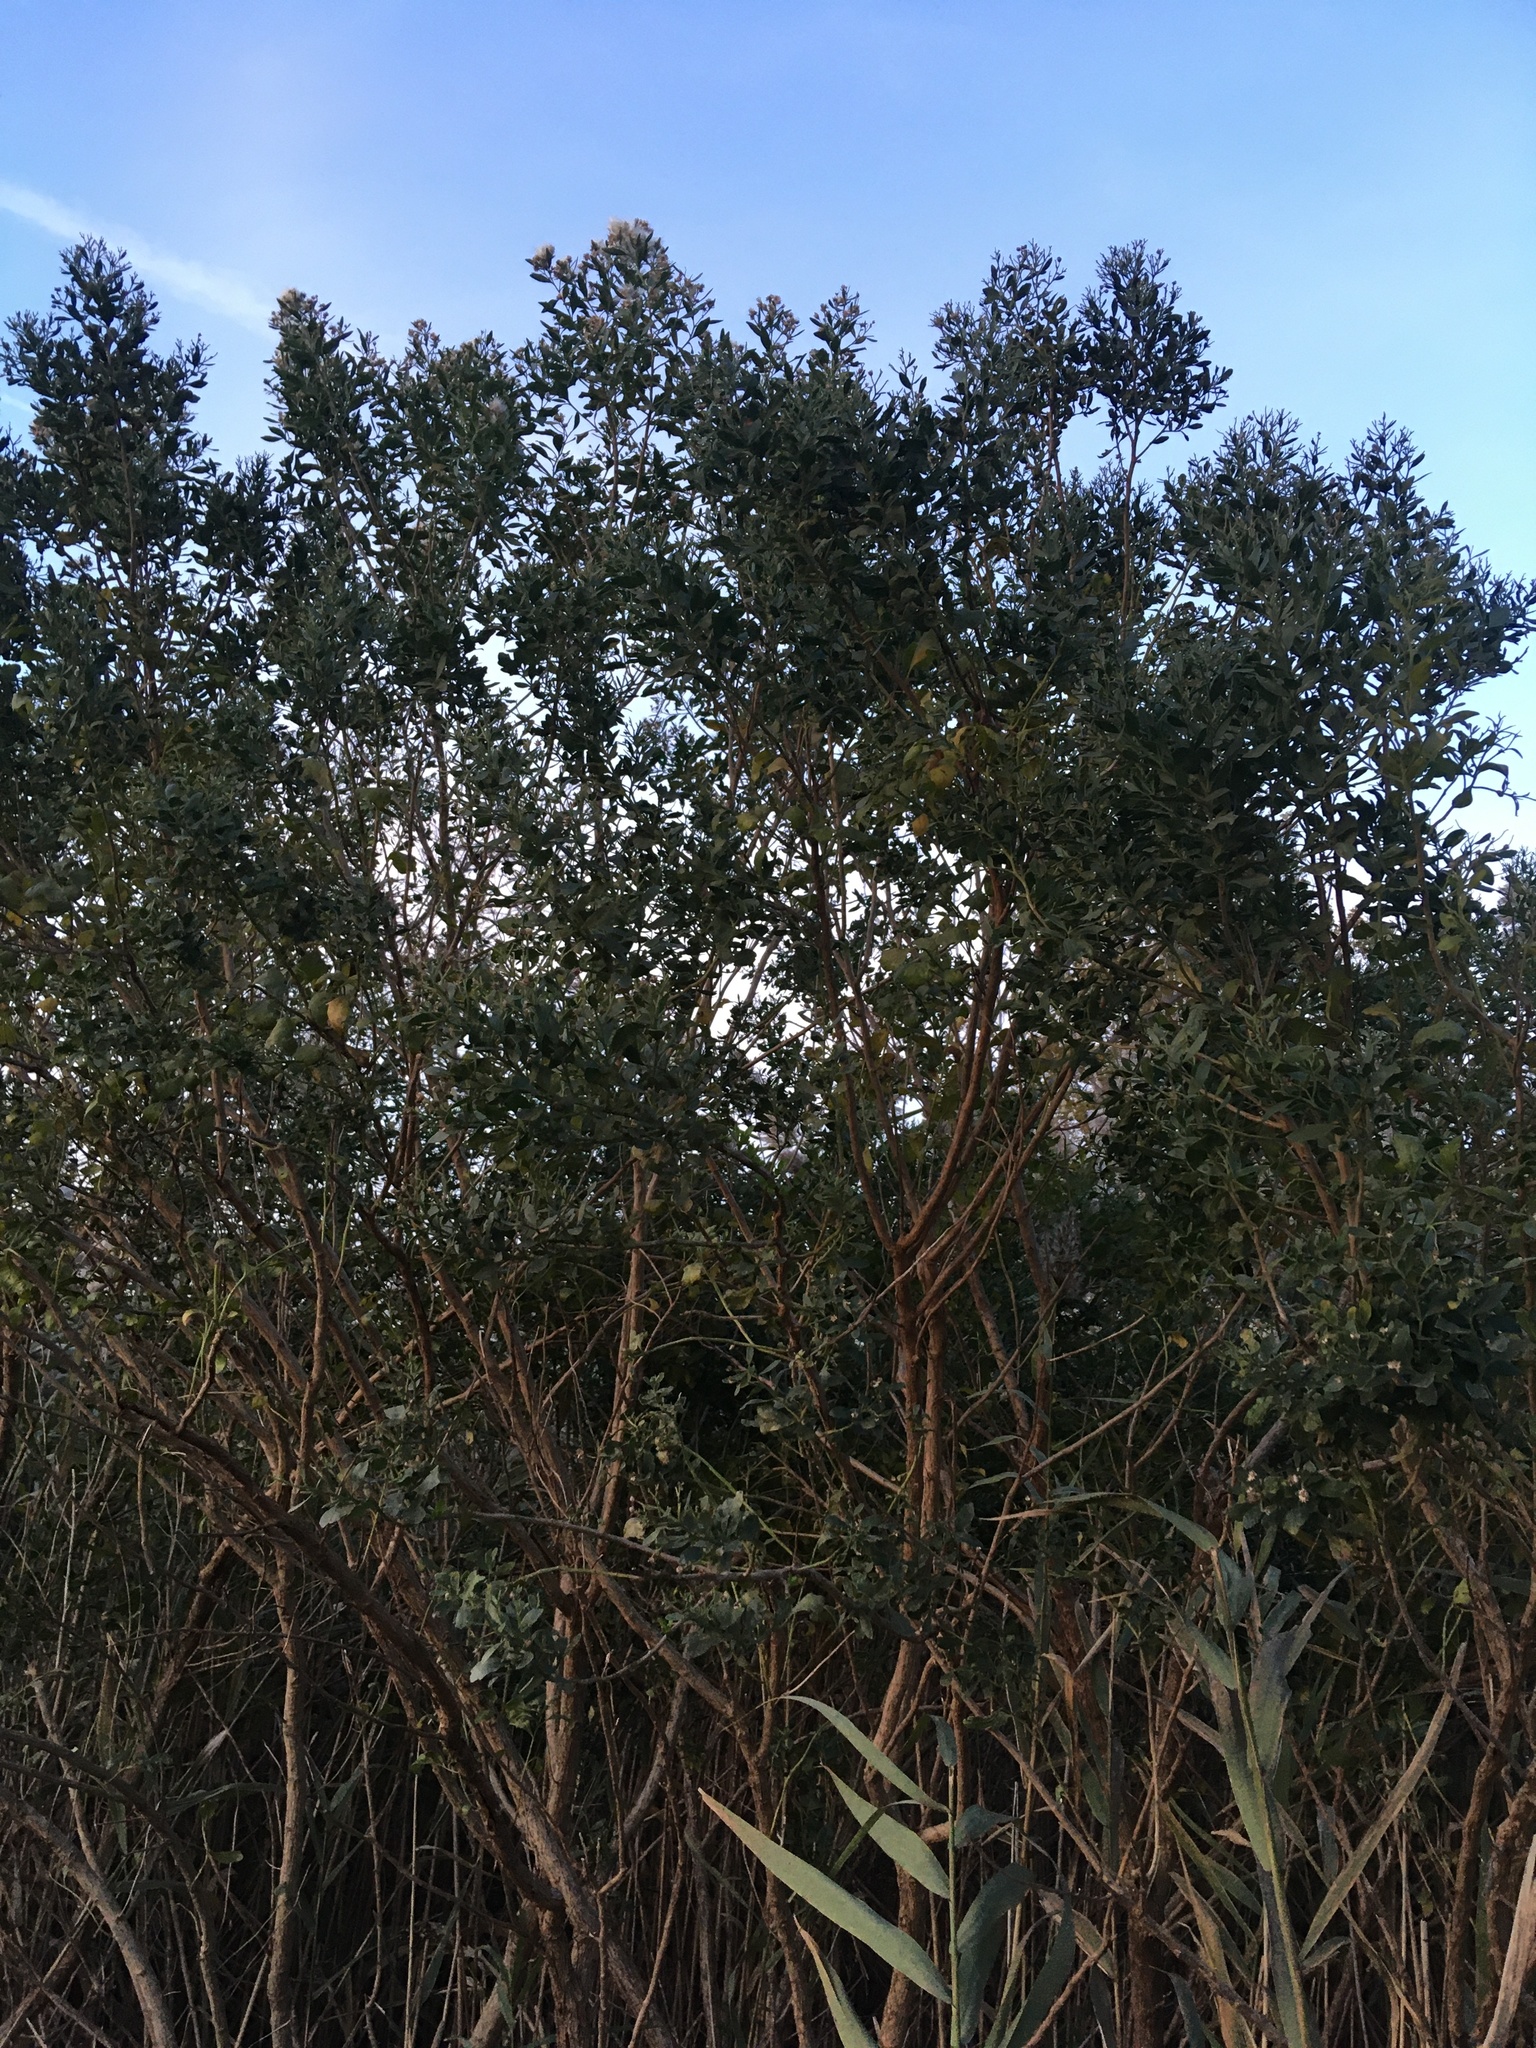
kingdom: Plantae
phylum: Tracheophyta
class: Magnoliopsida
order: Asterales
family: Asteraceae
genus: Baccharis
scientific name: Baccharis halimifolia
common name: Eastern baccharis
